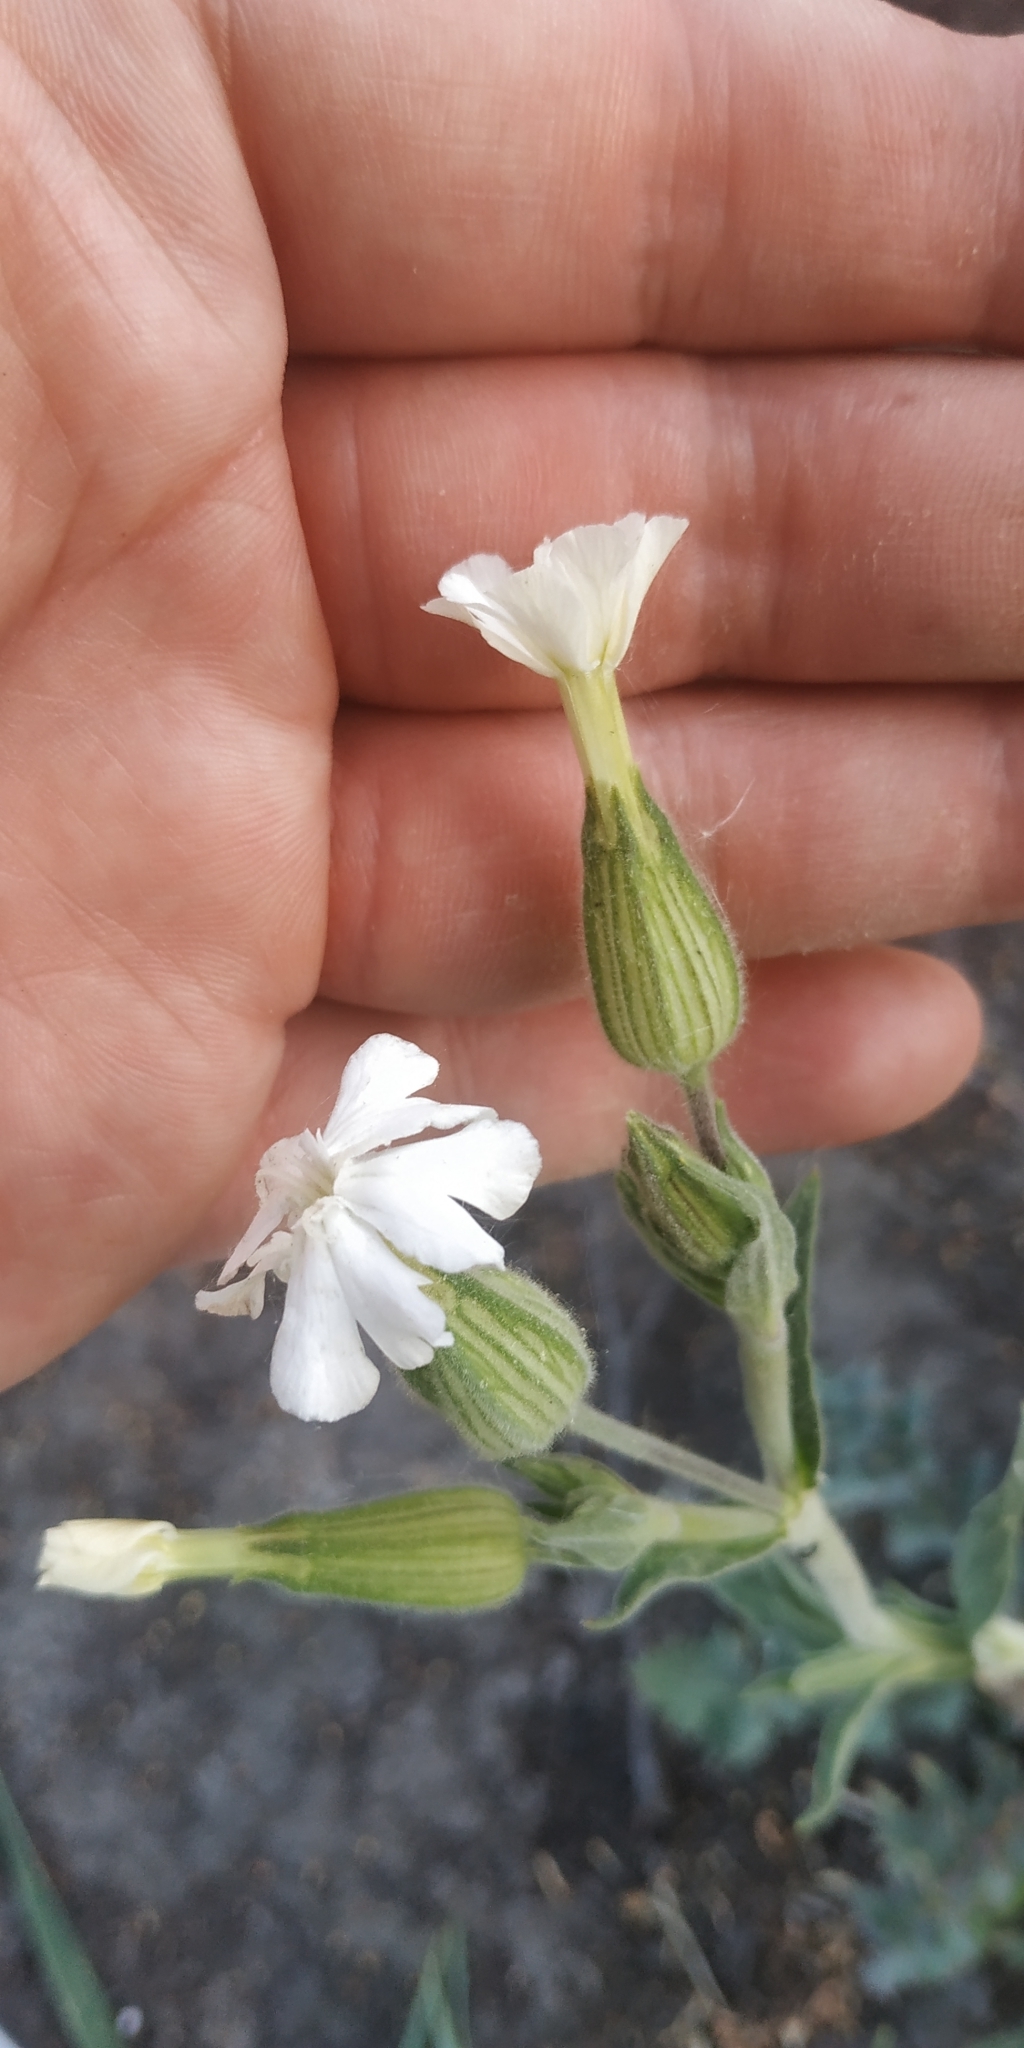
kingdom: Plantae
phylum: Tracheophyta
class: Magnoliopsida
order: Caryophyllales
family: Caryophyllaceae
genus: Silene
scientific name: Silene latifolia
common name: White campion
